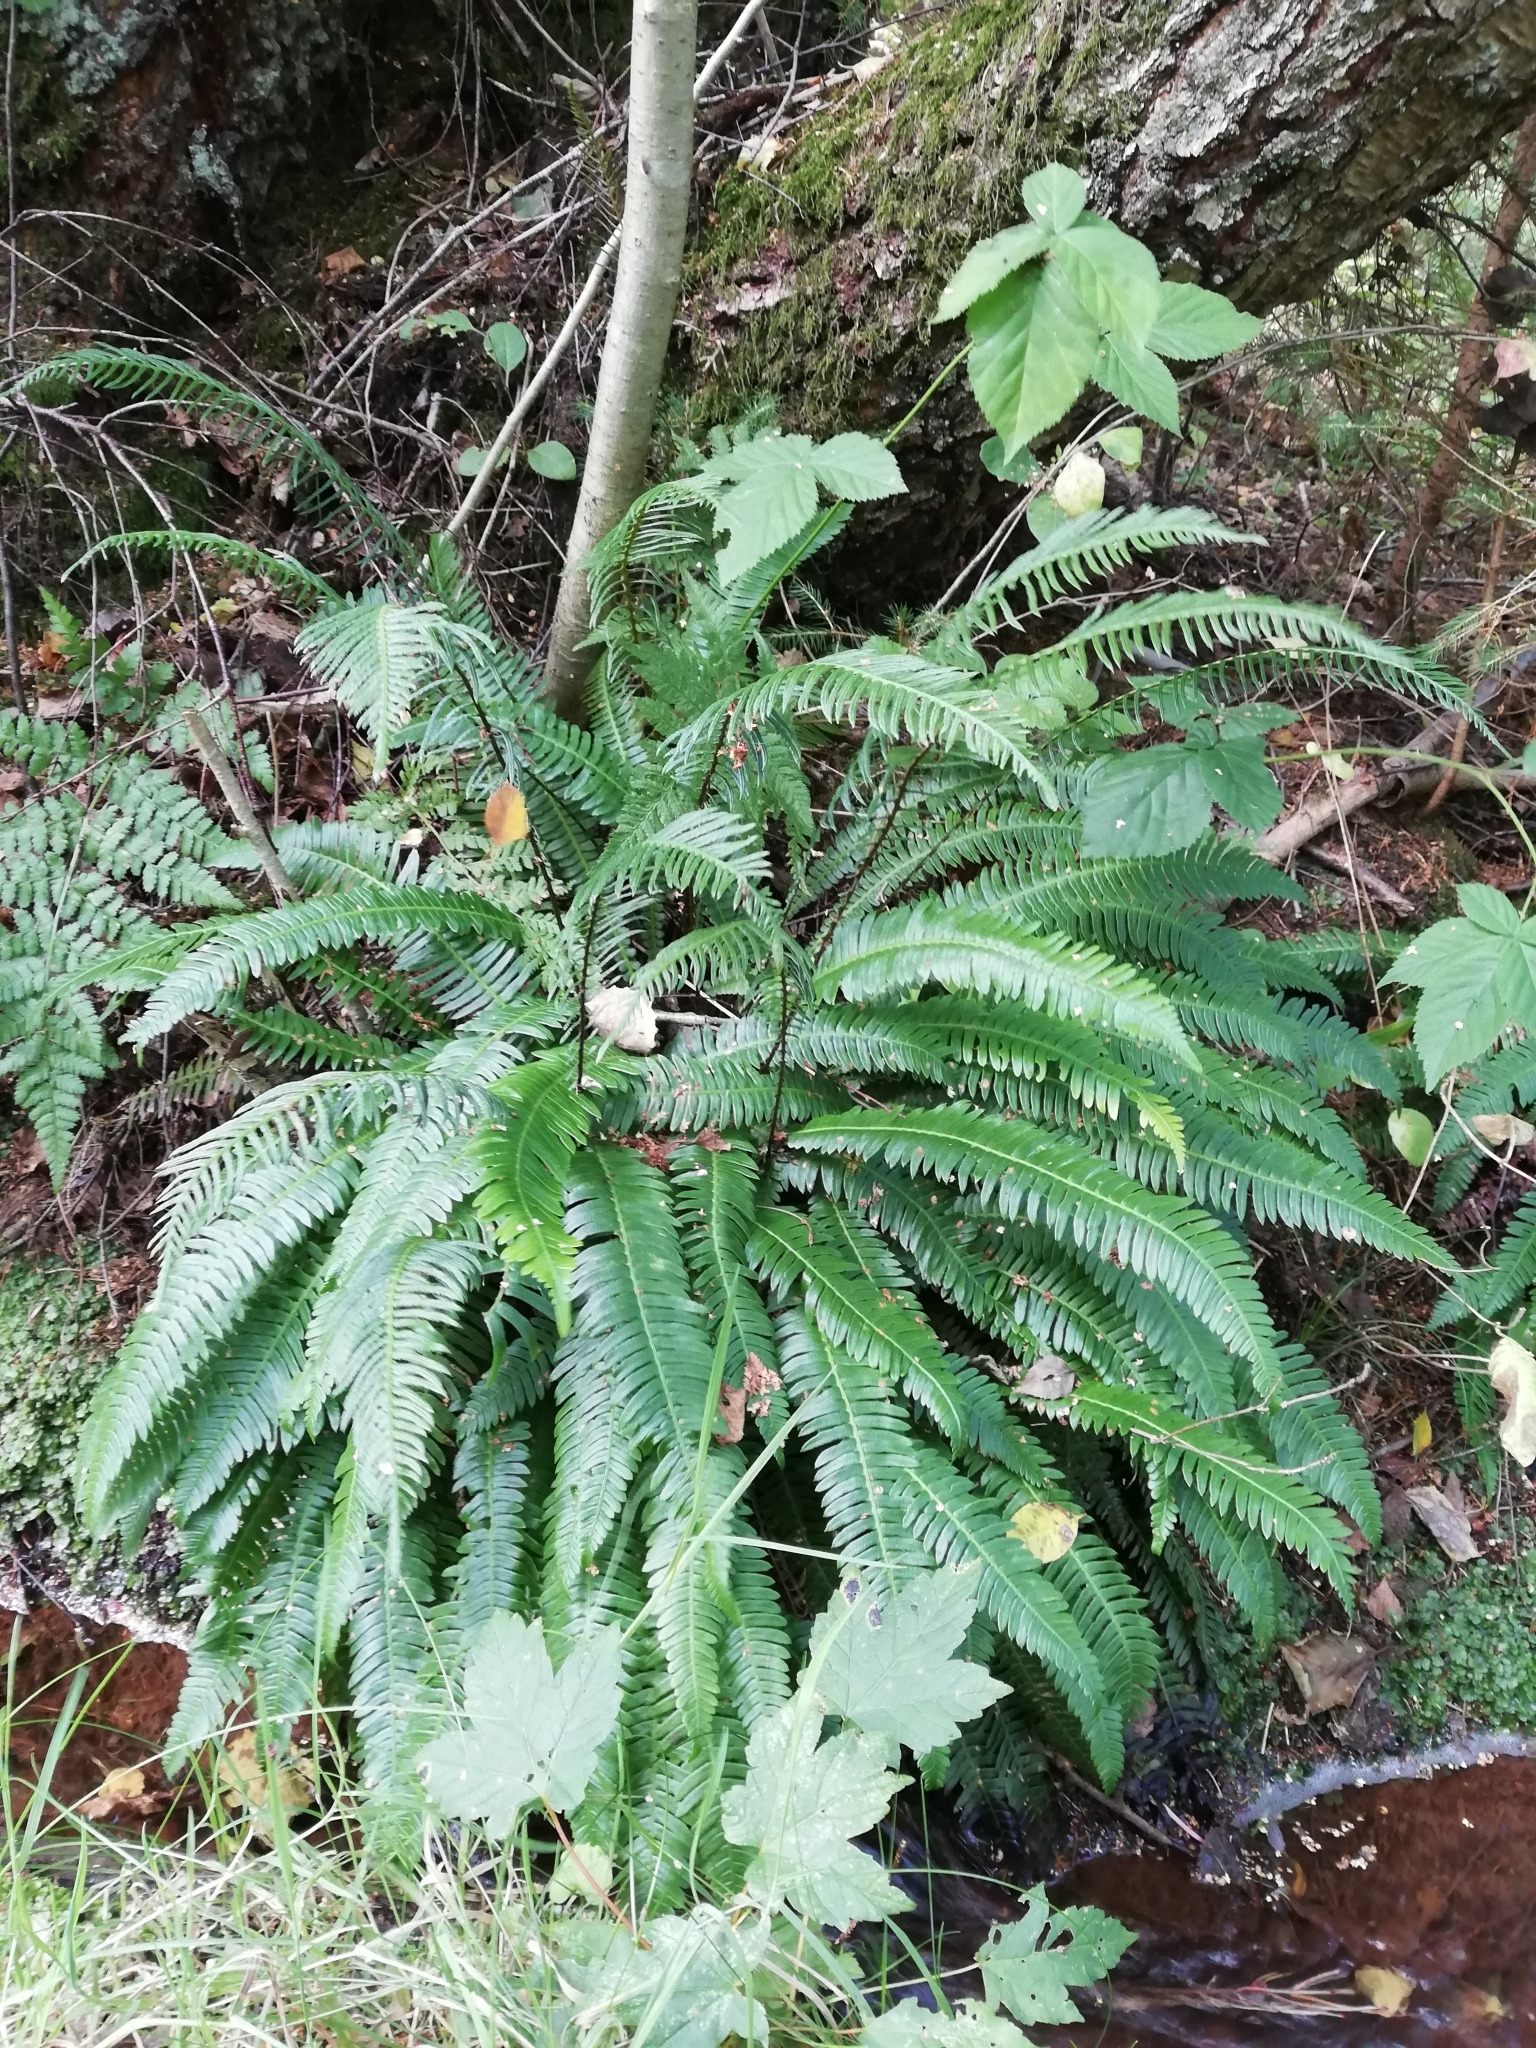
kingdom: Plantae
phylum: Tracheophyta
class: Polypodiopsida
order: Polypodiales
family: Blechnaceae
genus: Struthiopteris
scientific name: Struthiopteris spicant
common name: Deer fern
